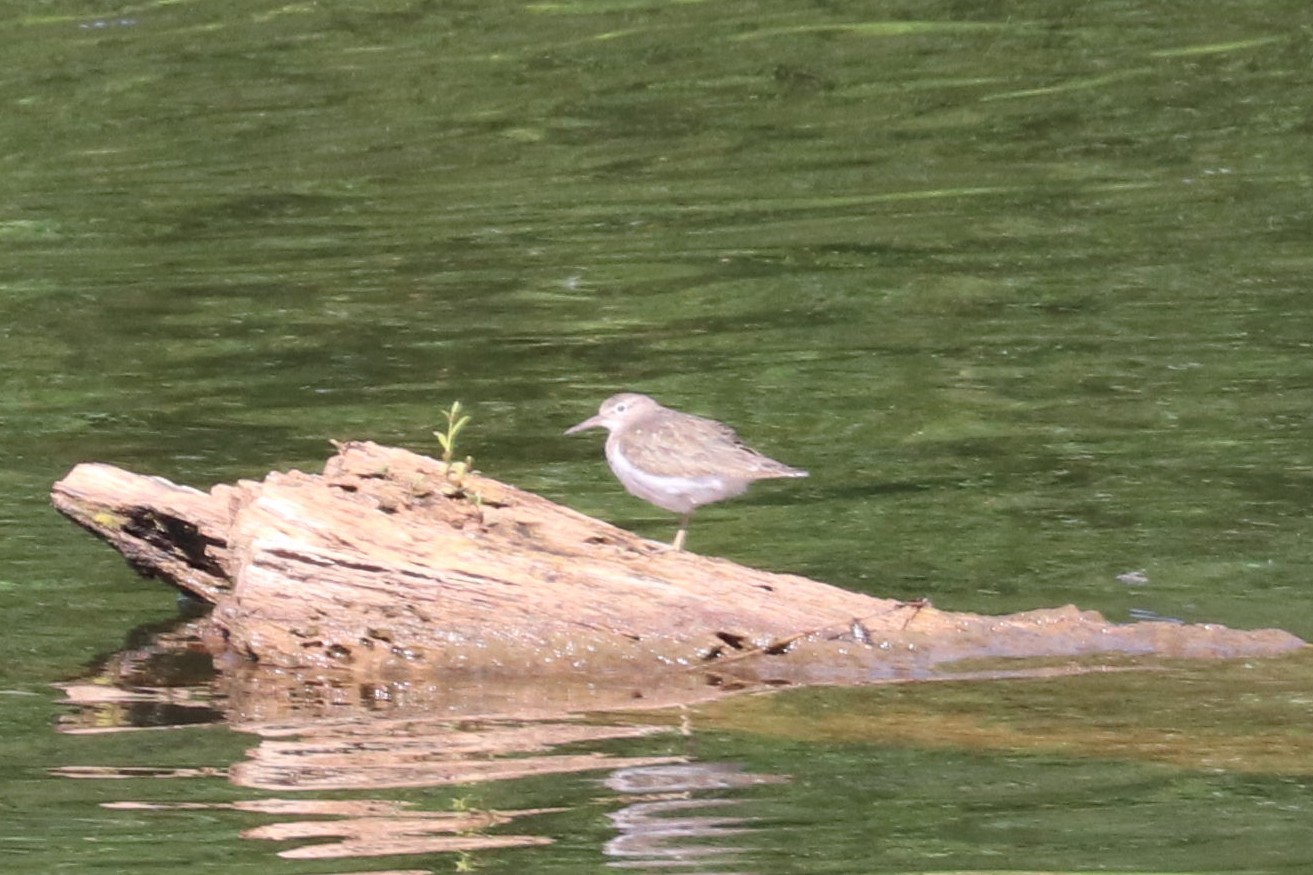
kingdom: Animalia
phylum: Chordata
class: Aves
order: Charadriiformes
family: Scolopacidae
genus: Actitis
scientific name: Actitis hypoleucos
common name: Common sandpiper
